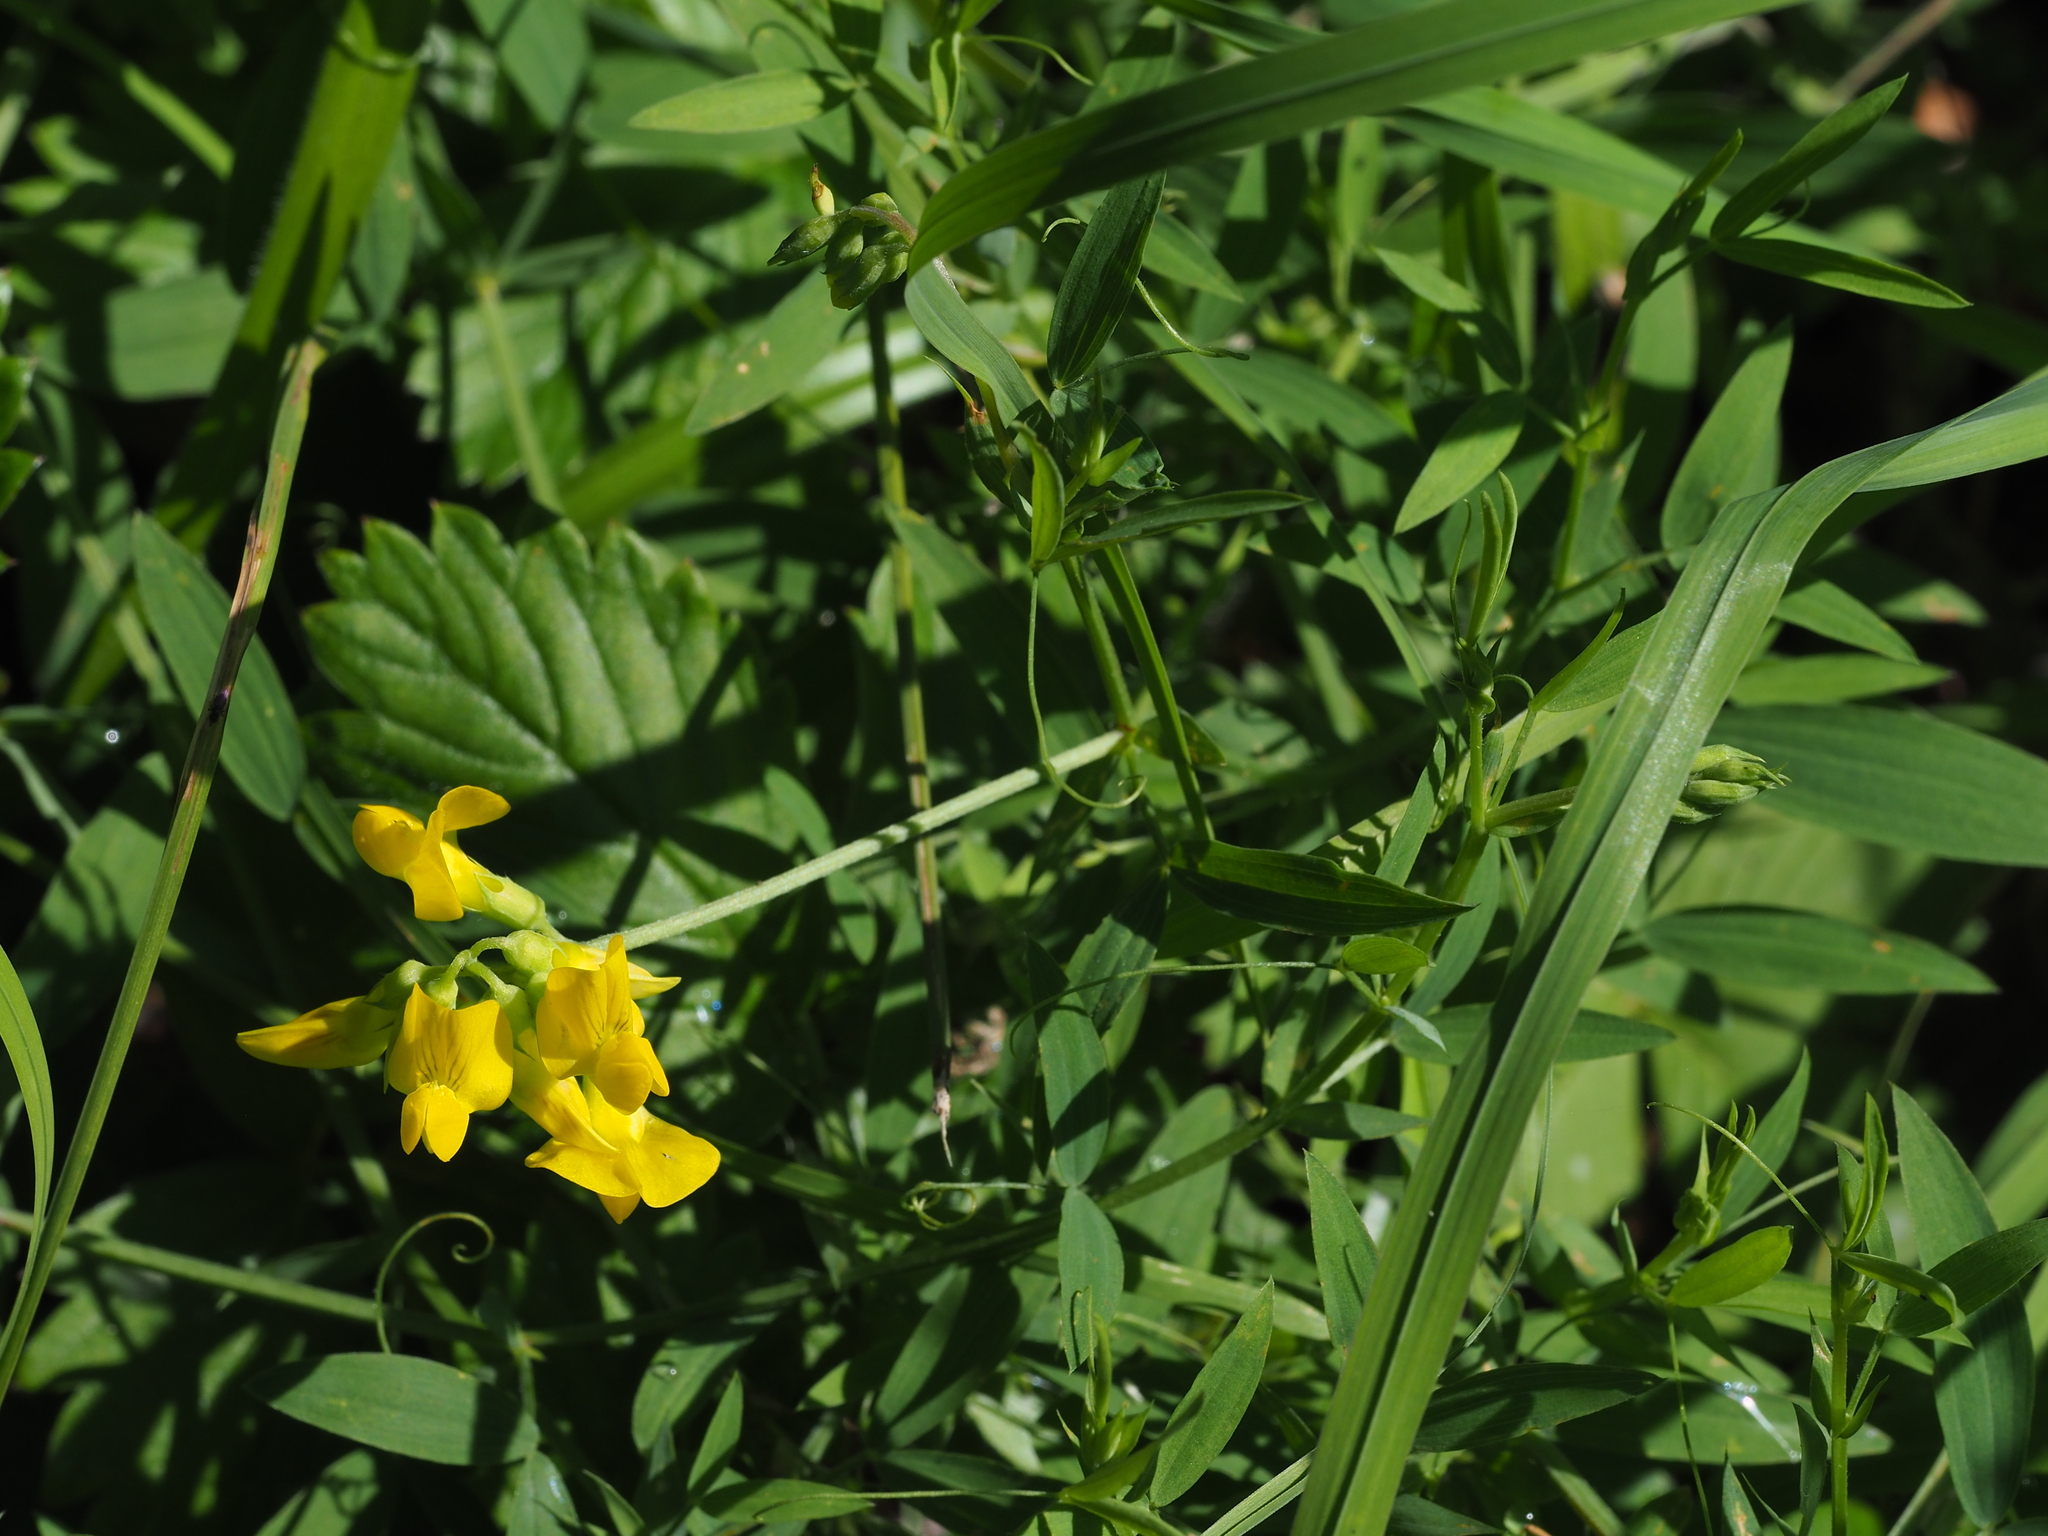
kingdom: Plantae
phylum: Tracheophyta
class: Magnoliopsida
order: Fabales
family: Fabaceae
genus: Lathyrus
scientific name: Lathyrus pratensis
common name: Meadow vetchling
